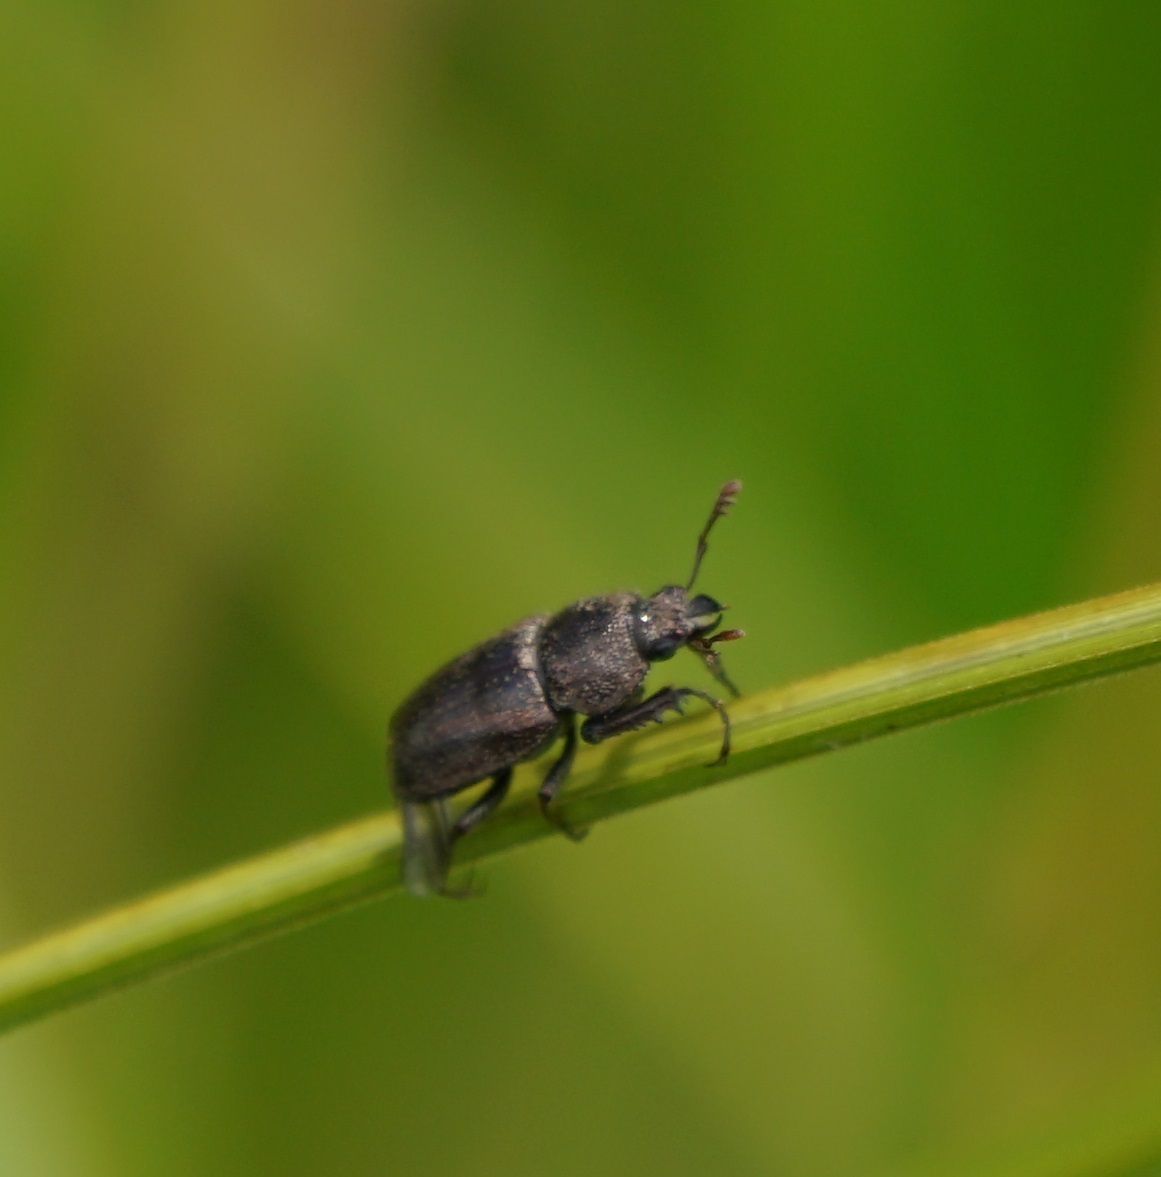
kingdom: Animalia
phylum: Arthropoda
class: Insecta
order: Coleoptera
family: Lucanidae
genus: Cacostomus
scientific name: Cacostomus subvittatus
